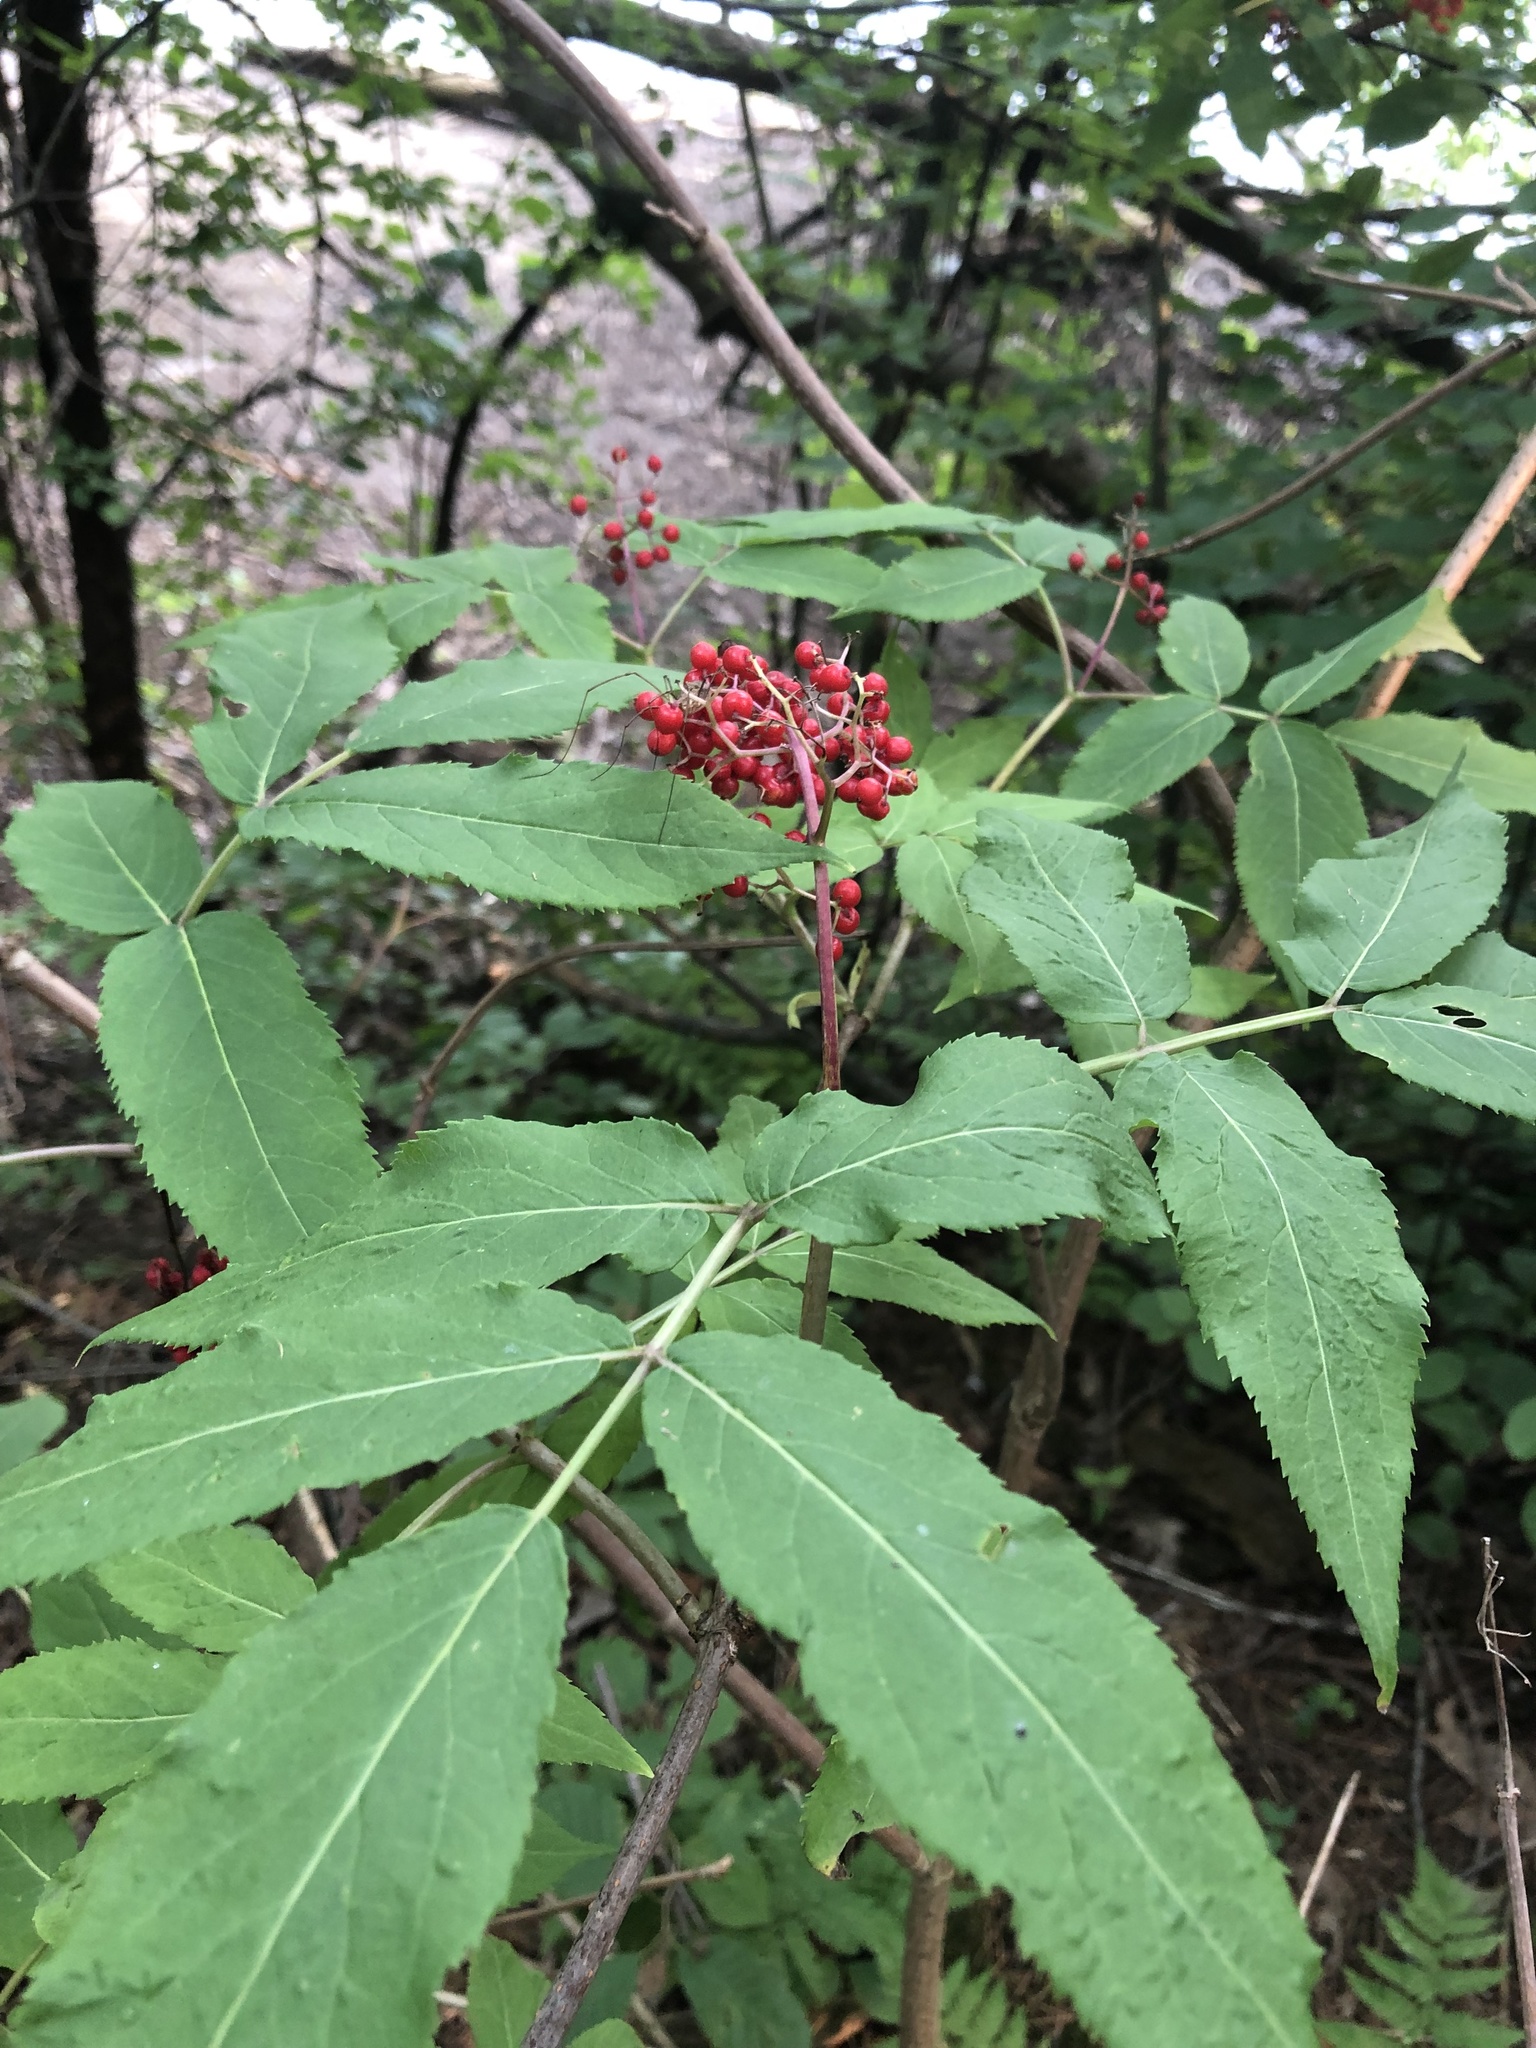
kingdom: Plantae
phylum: Tracheophyta
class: Magnoliopsida
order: Dipsacales
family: Viburnaceae
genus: Sambucus
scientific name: Sambucus racemosa
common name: Red-berried elder
